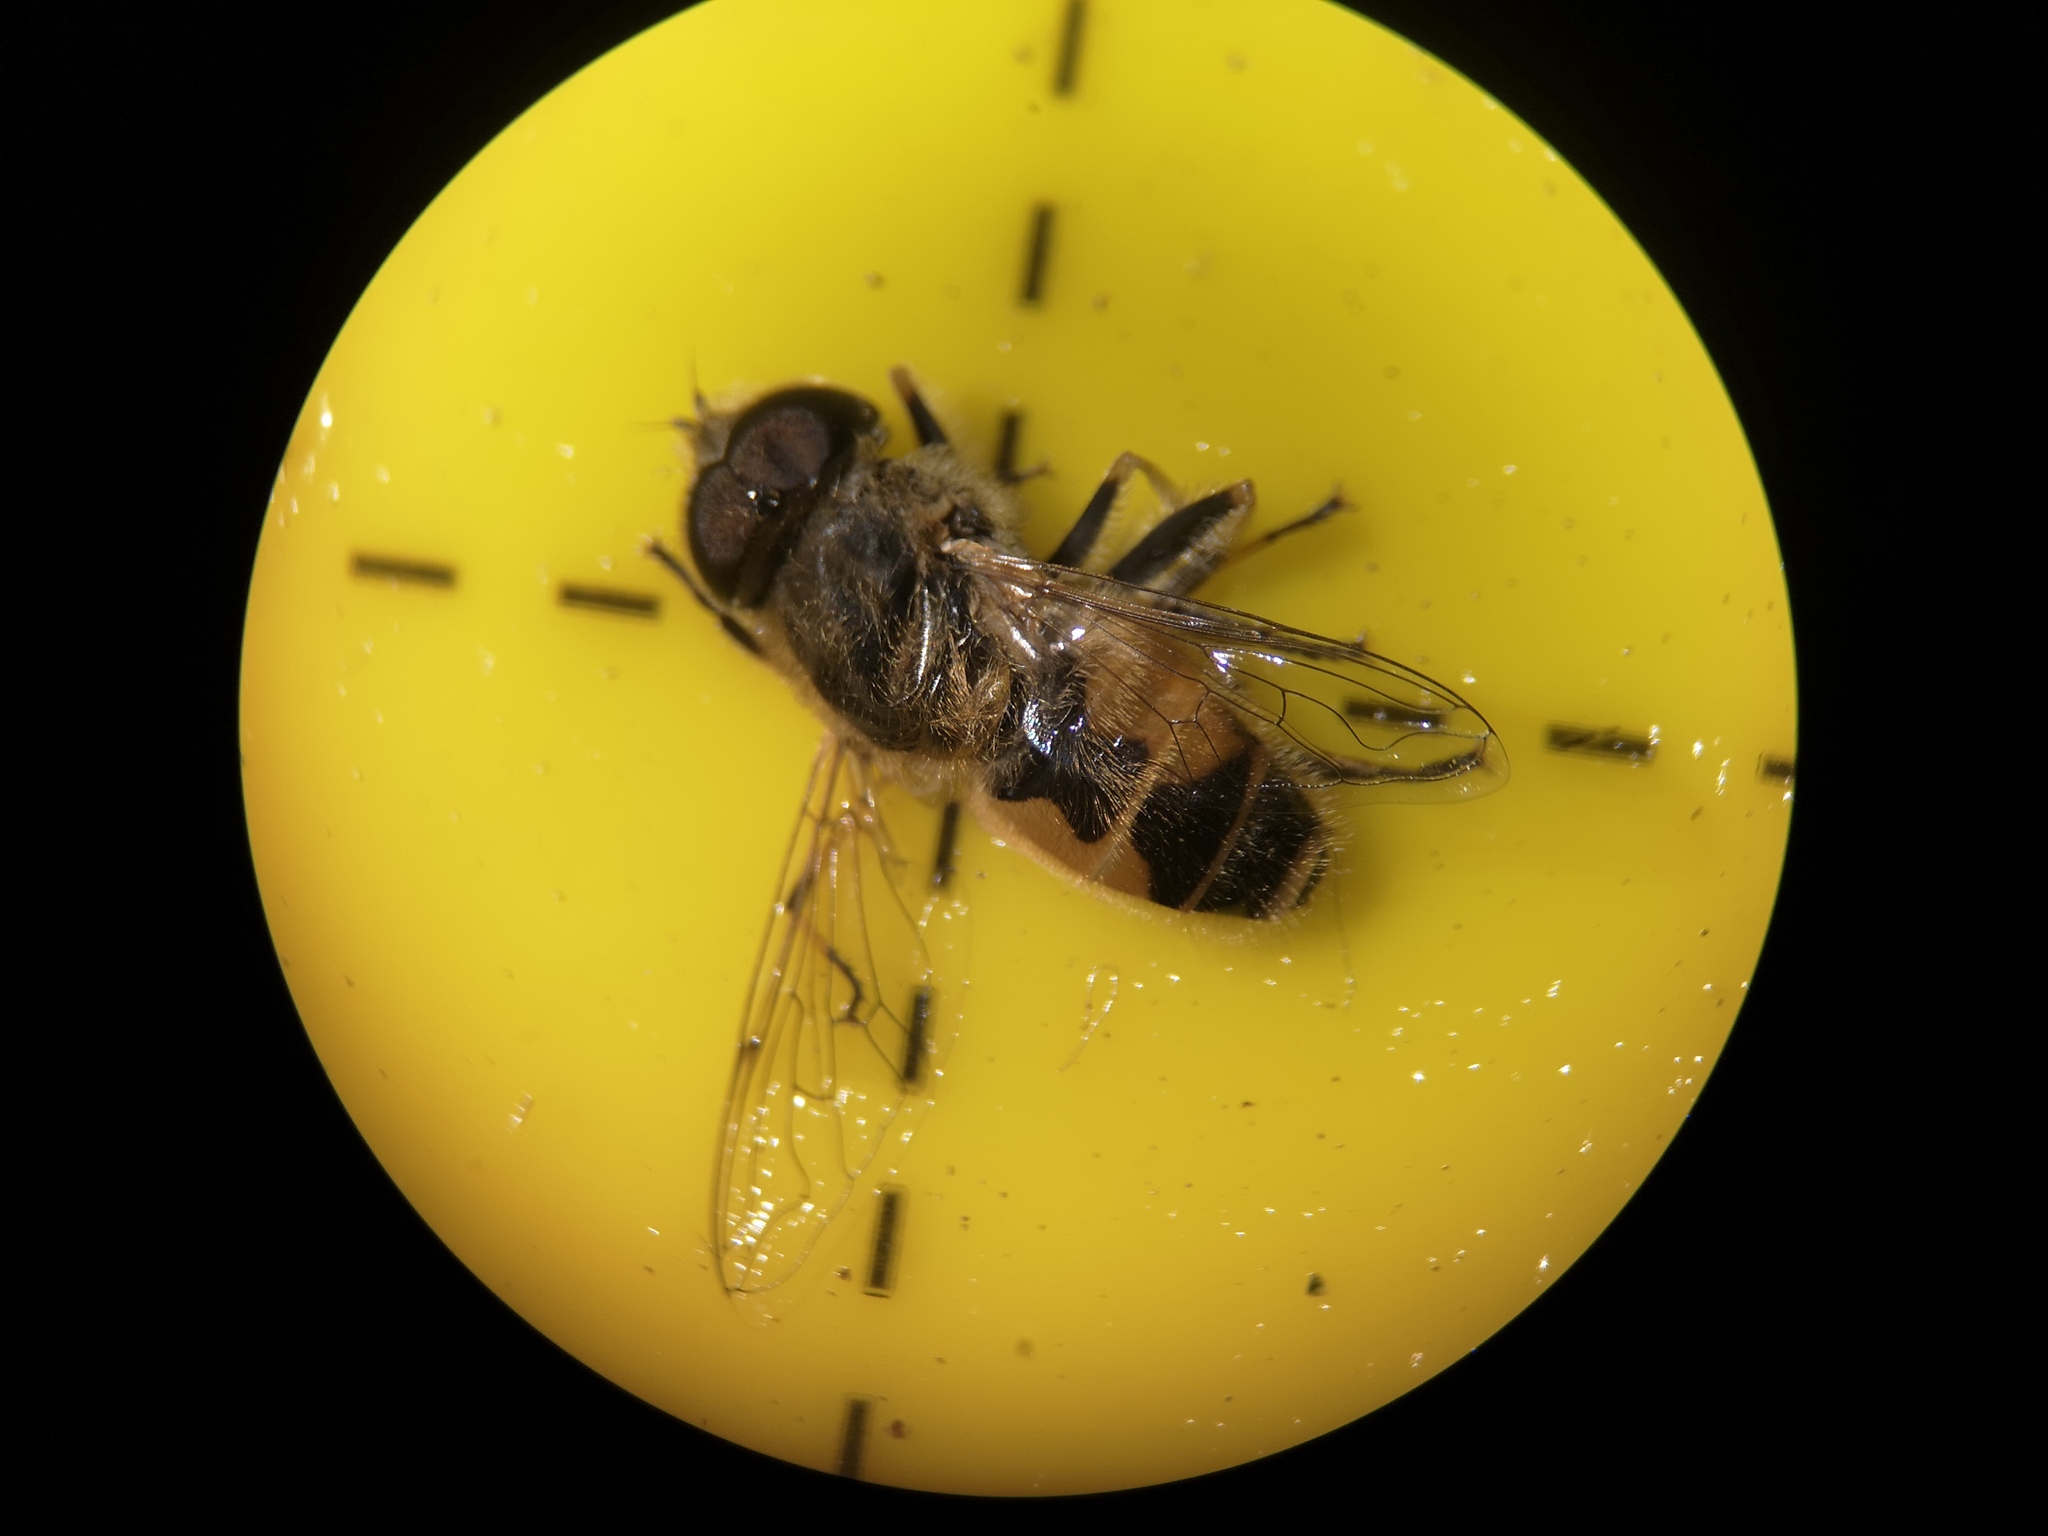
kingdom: Animalia
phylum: Arthropoda
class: Insecta
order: Diptera
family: Syrphidae
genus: Eristalis
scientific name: Eristalis arbustorum
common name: Hover fly
